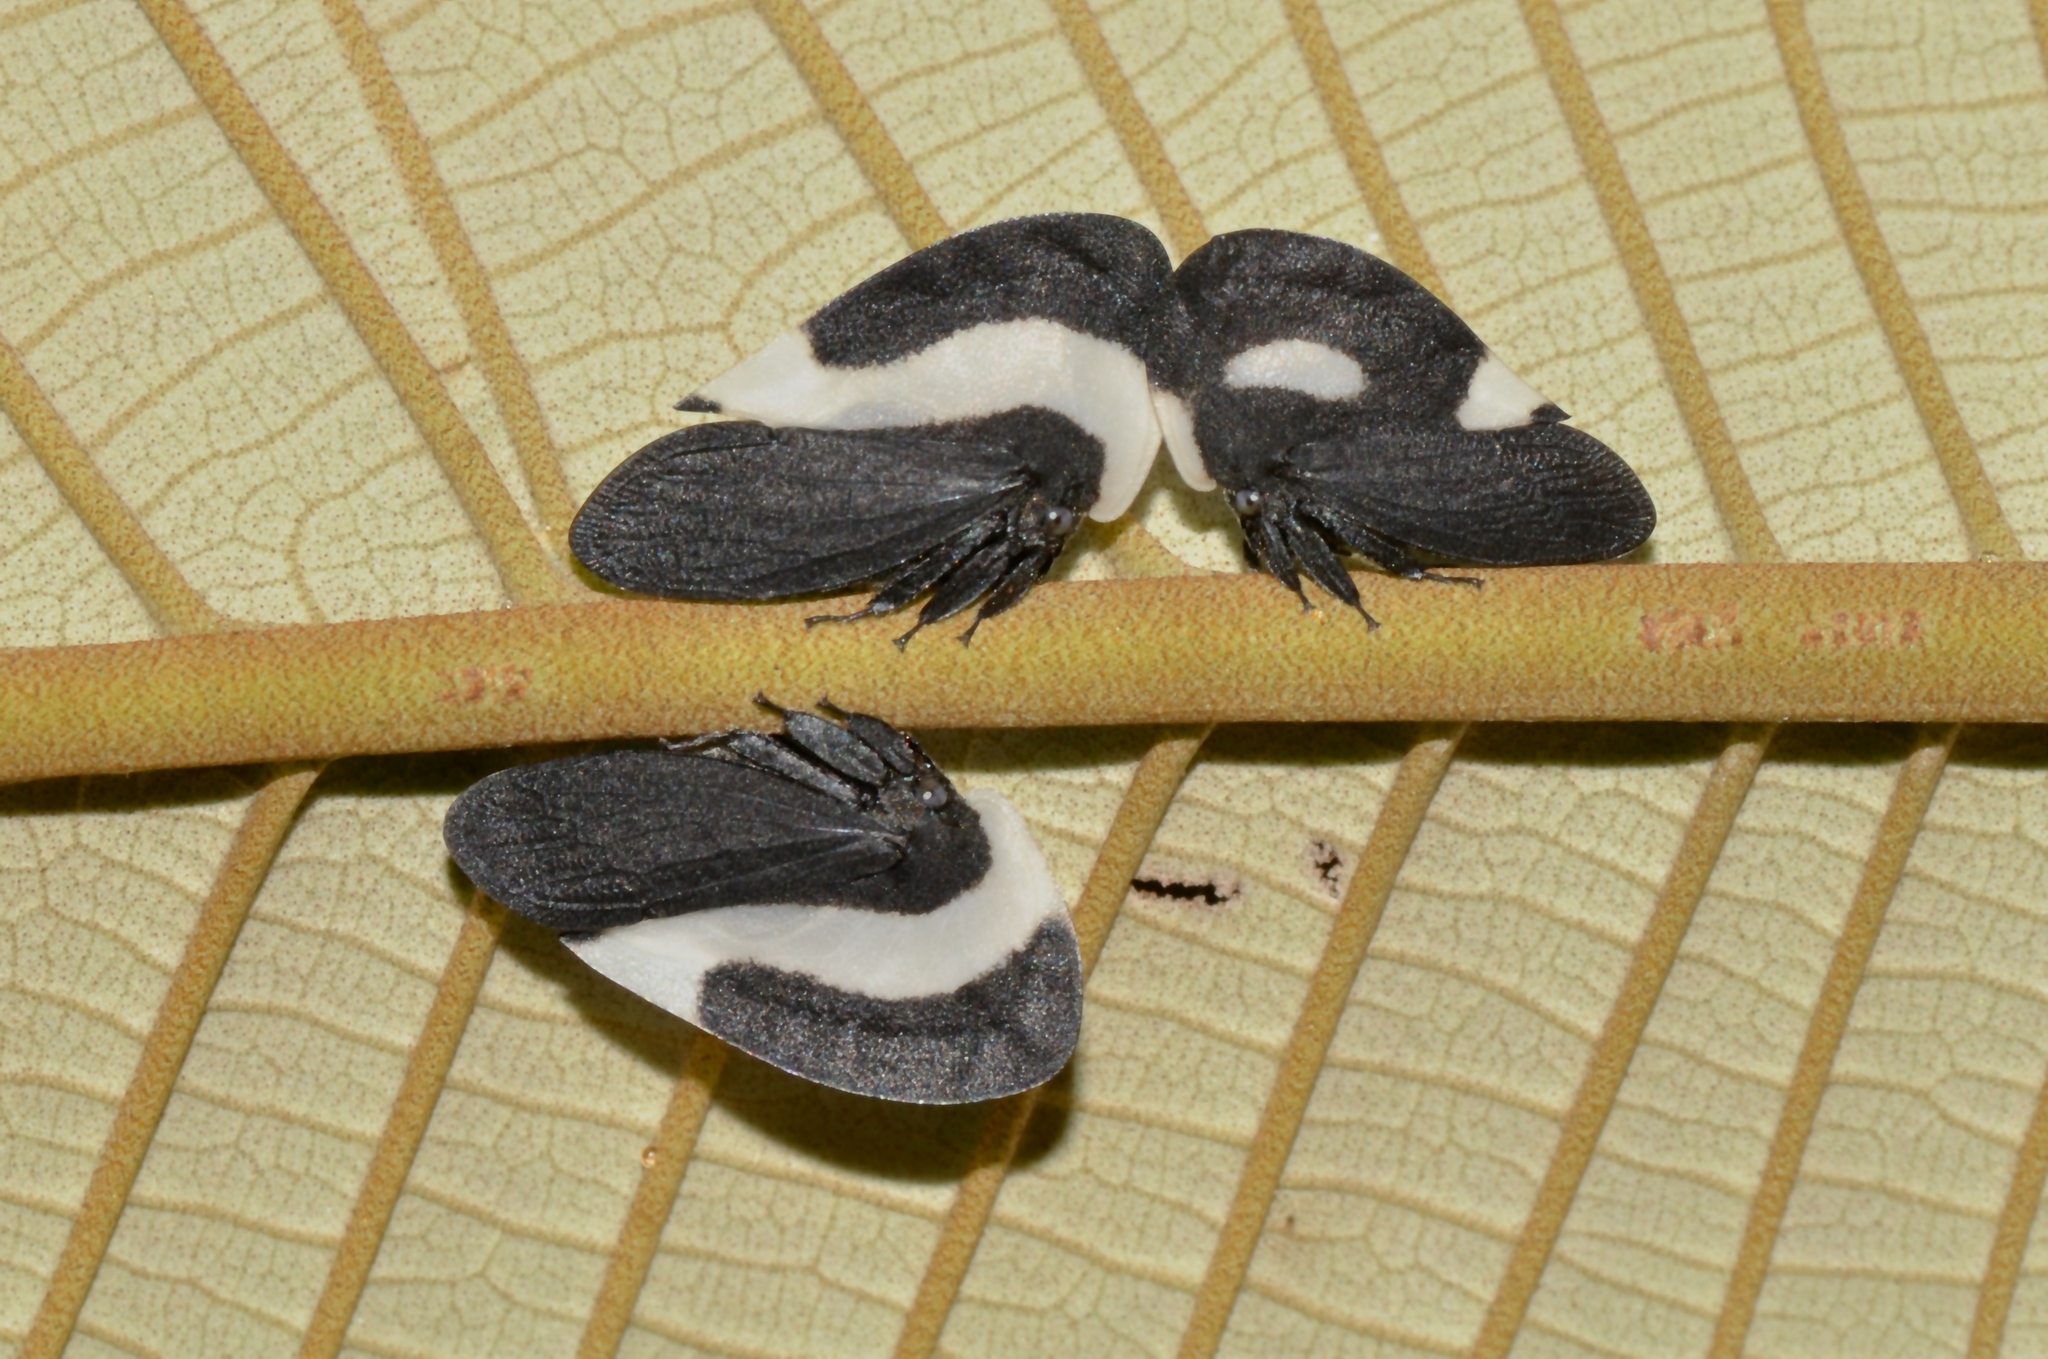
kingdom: Animalia
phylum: Arthropoda
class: Insecta
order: Hemiptera
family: Membracidae
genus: Membracis
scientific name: Membracis tectigera
